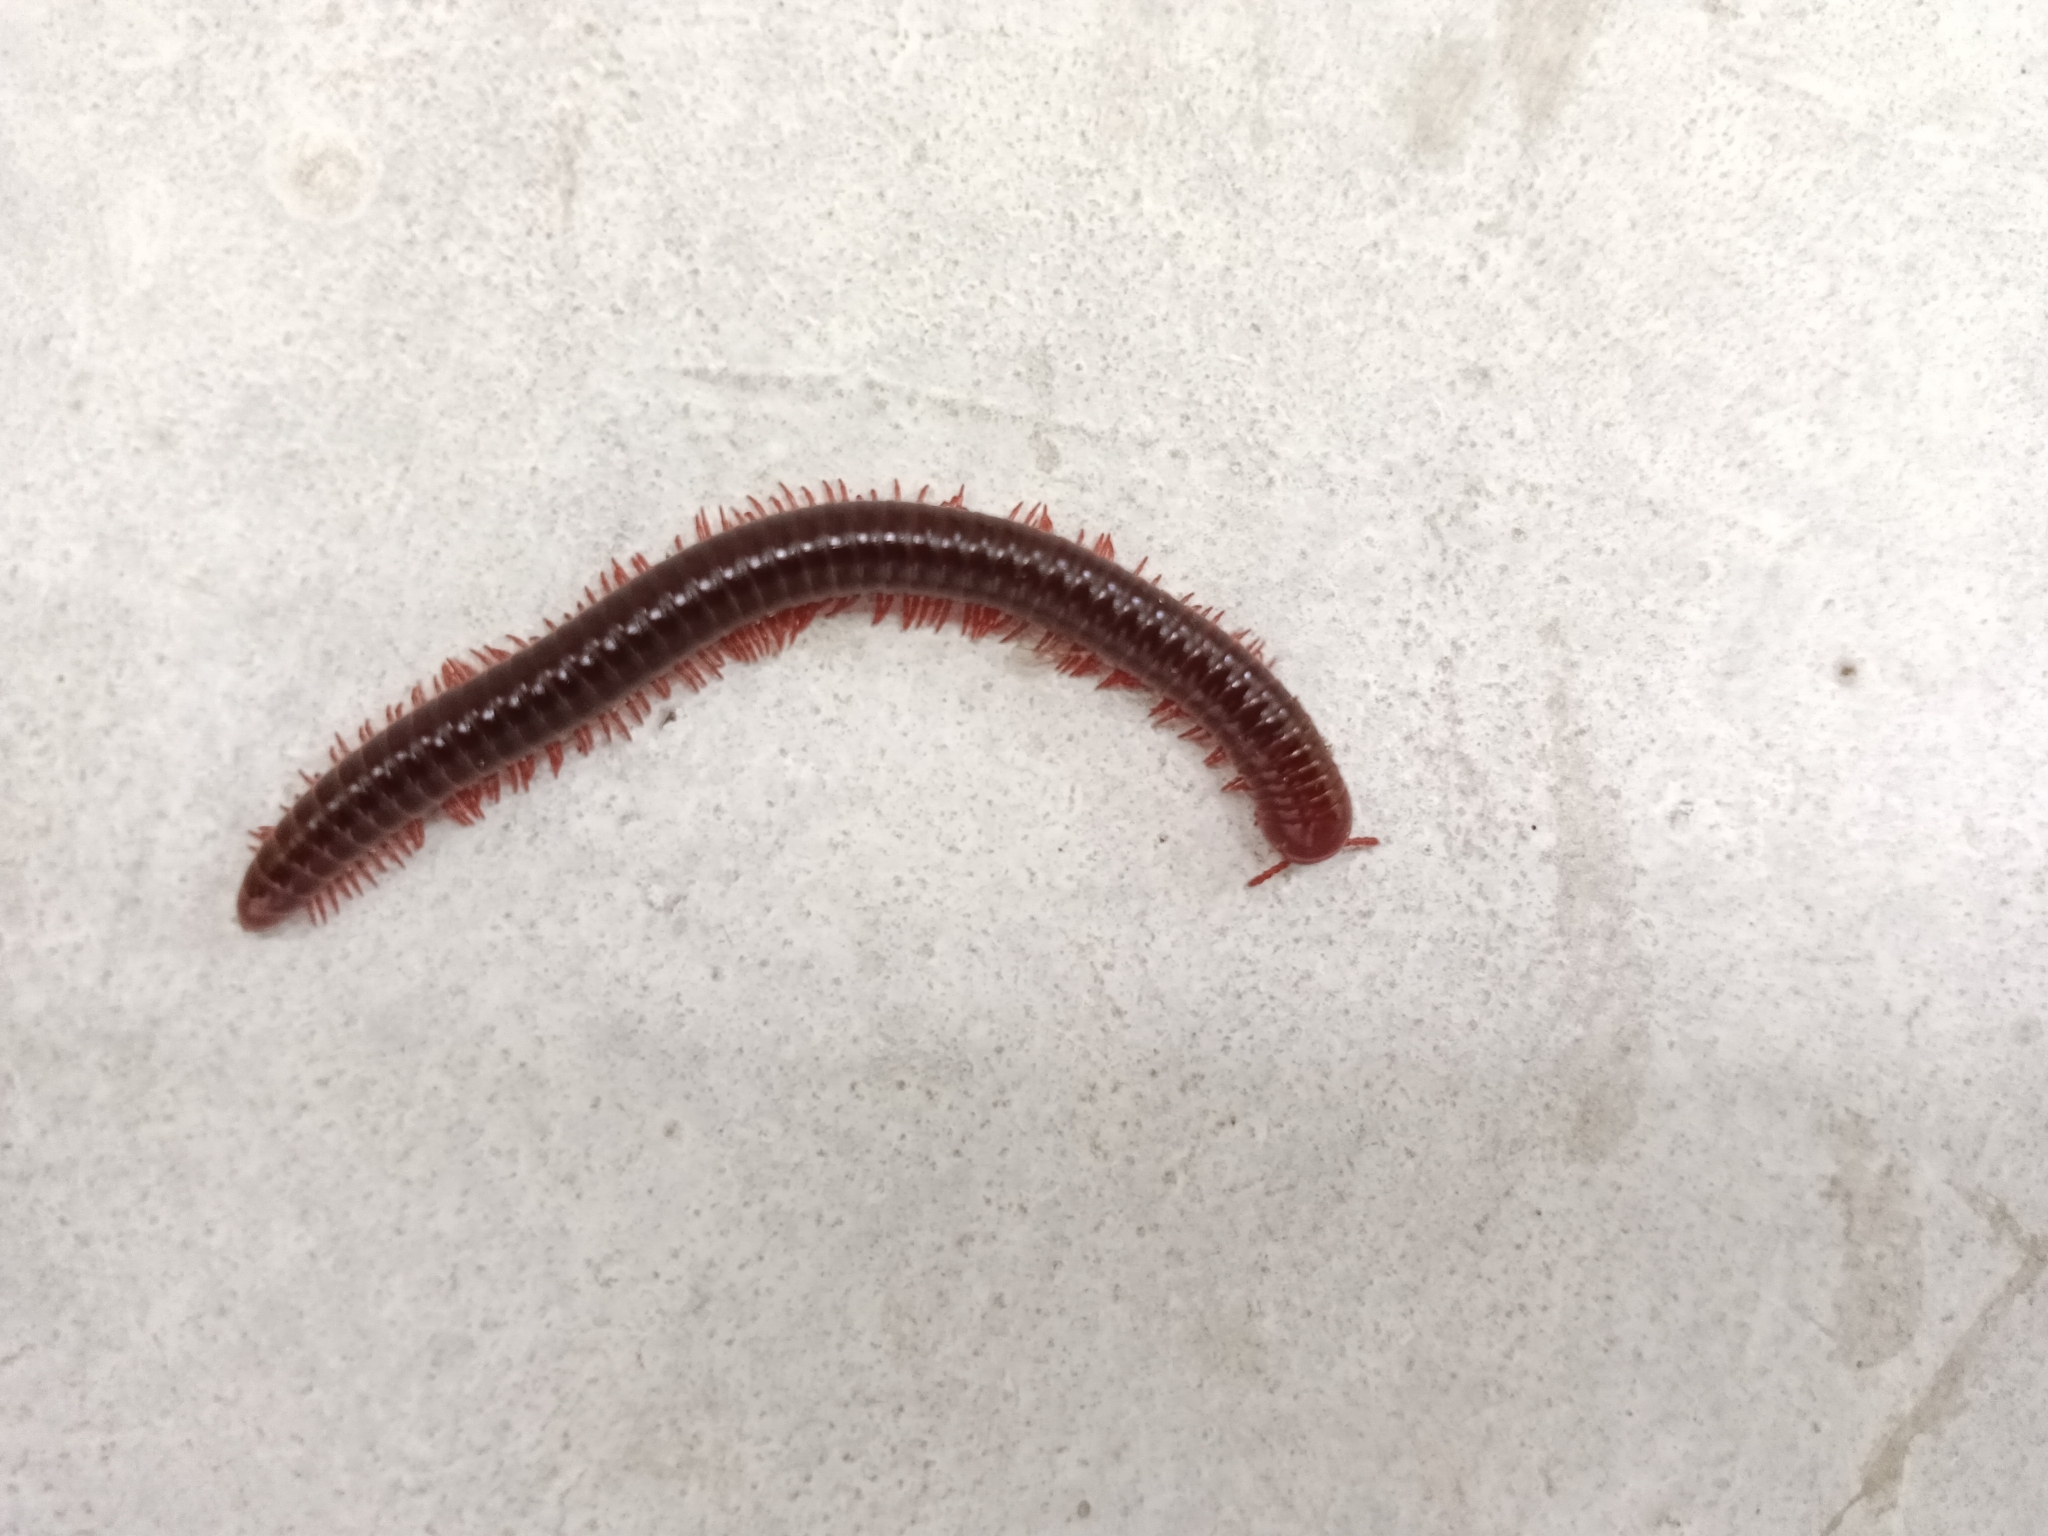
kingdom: Animalia
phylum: Arthropoda
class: Diplopoda
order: Spirobolida
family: Pachybolidae
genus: Trigoniulus
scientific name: Trigoniulus corallinus
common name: Millipede
